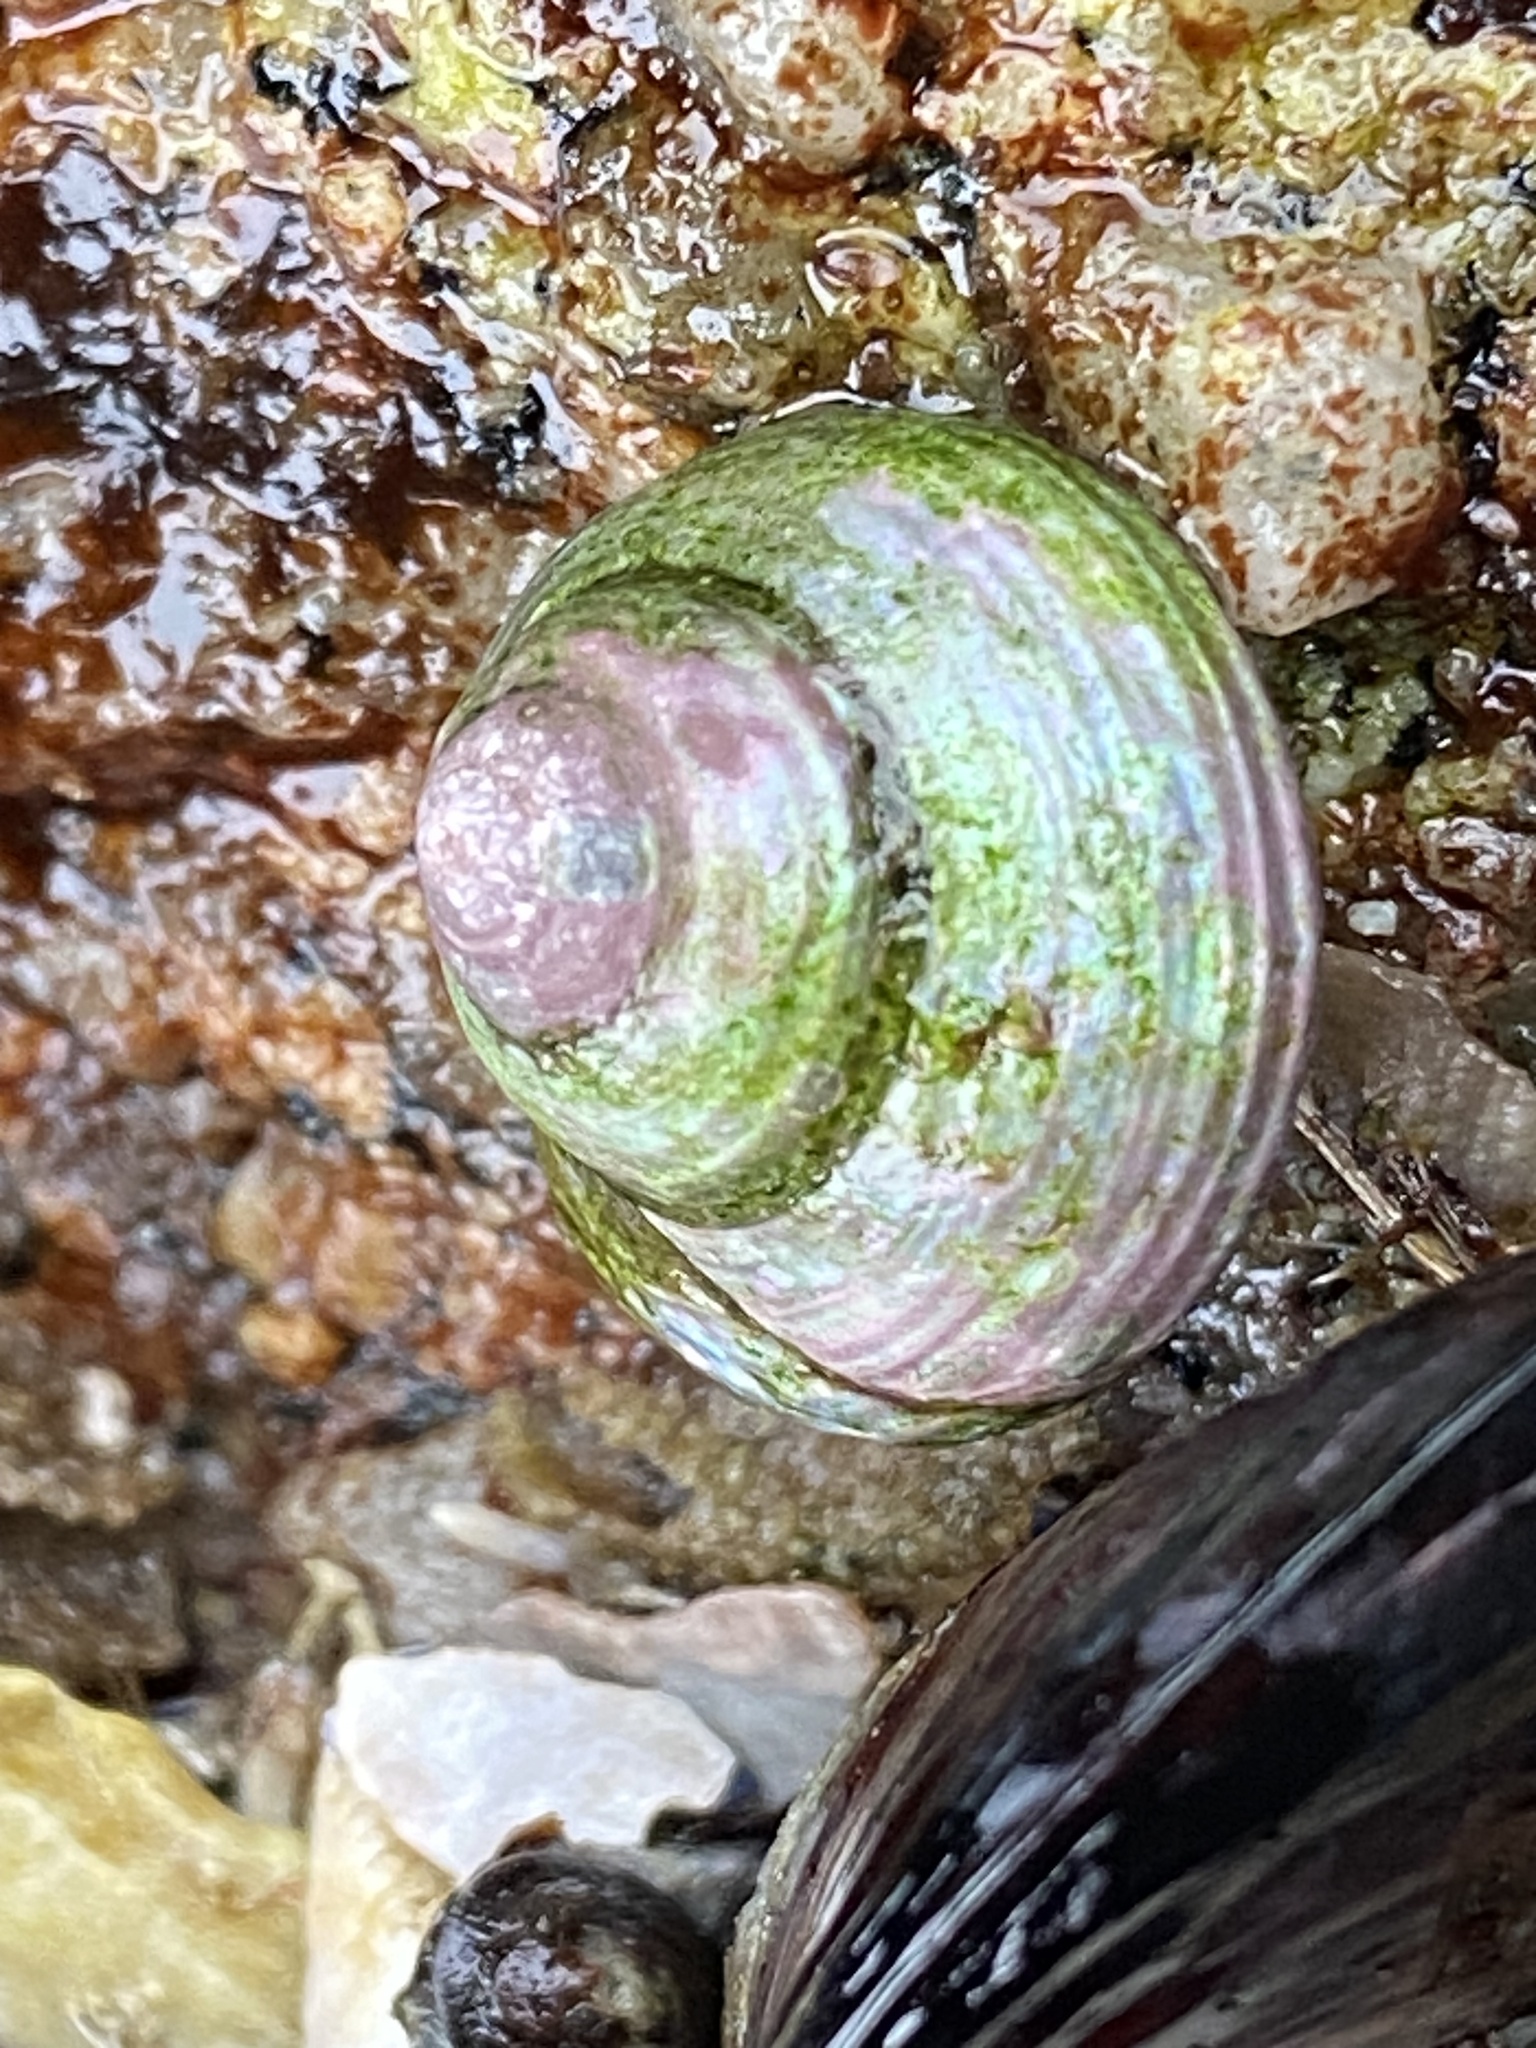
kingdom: Animalia
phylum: Mollusca
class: Gastropoda
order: Trochida
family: Calliostomatidae
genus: Calliostoma
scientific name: Calliostoma ligatum
